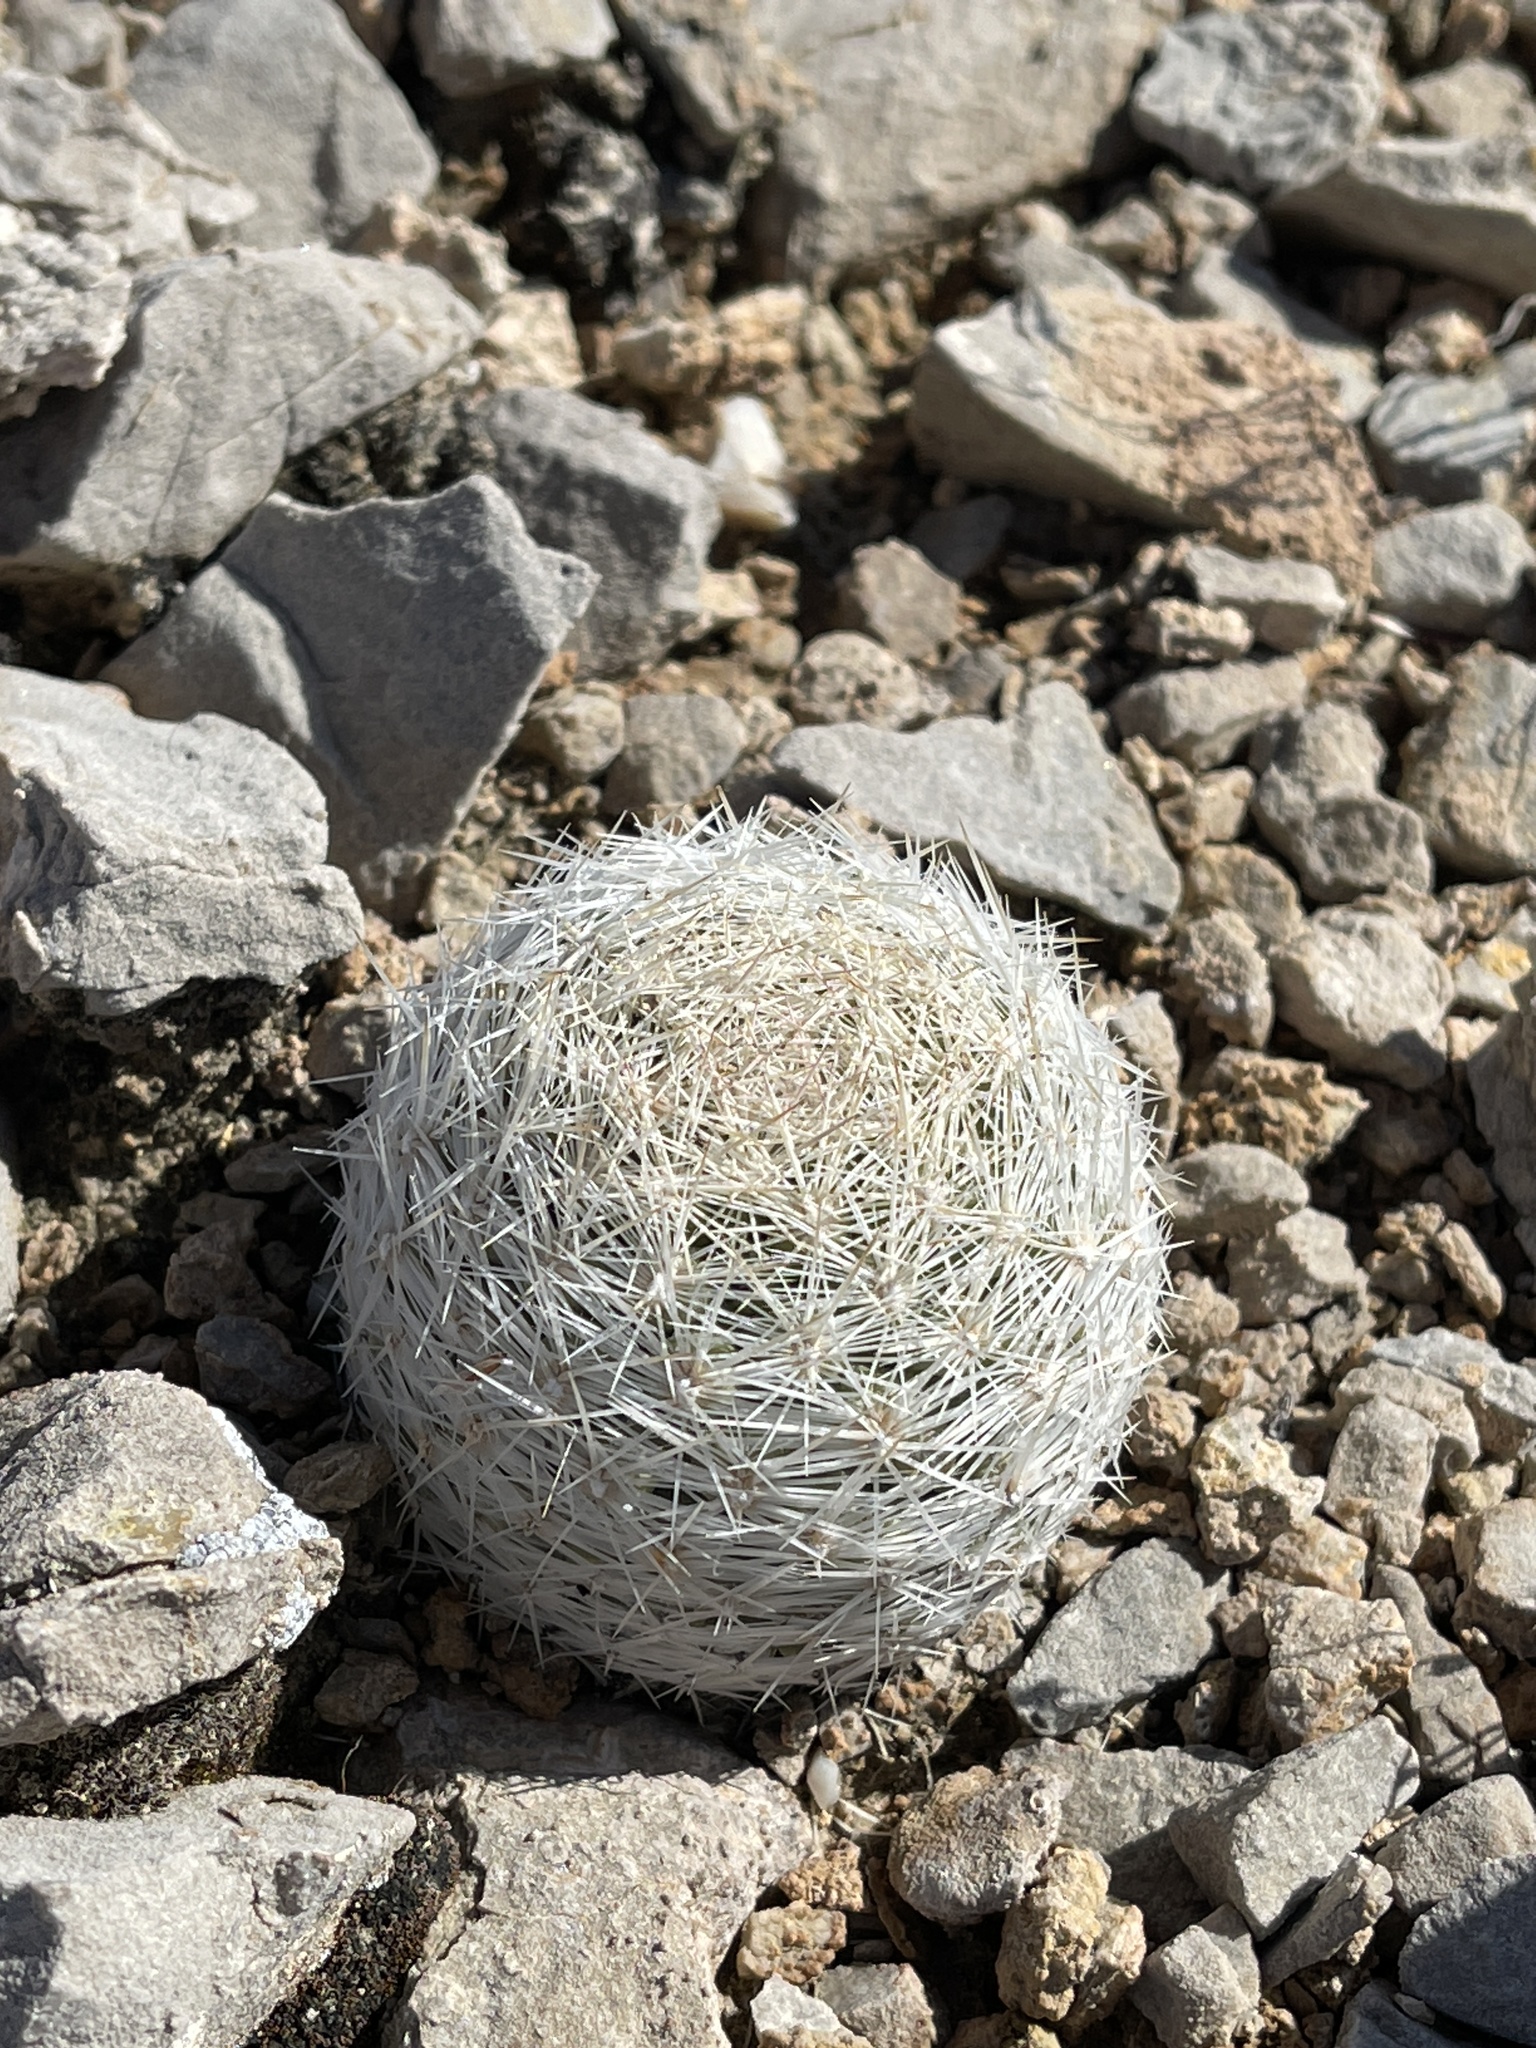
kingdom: Plantae
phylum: Tracheophyta
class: Magnoliopsida
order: Caryophyllales
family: Cactaceae
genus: Pelecyphora
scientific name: Pelecyphora dasyacantha
